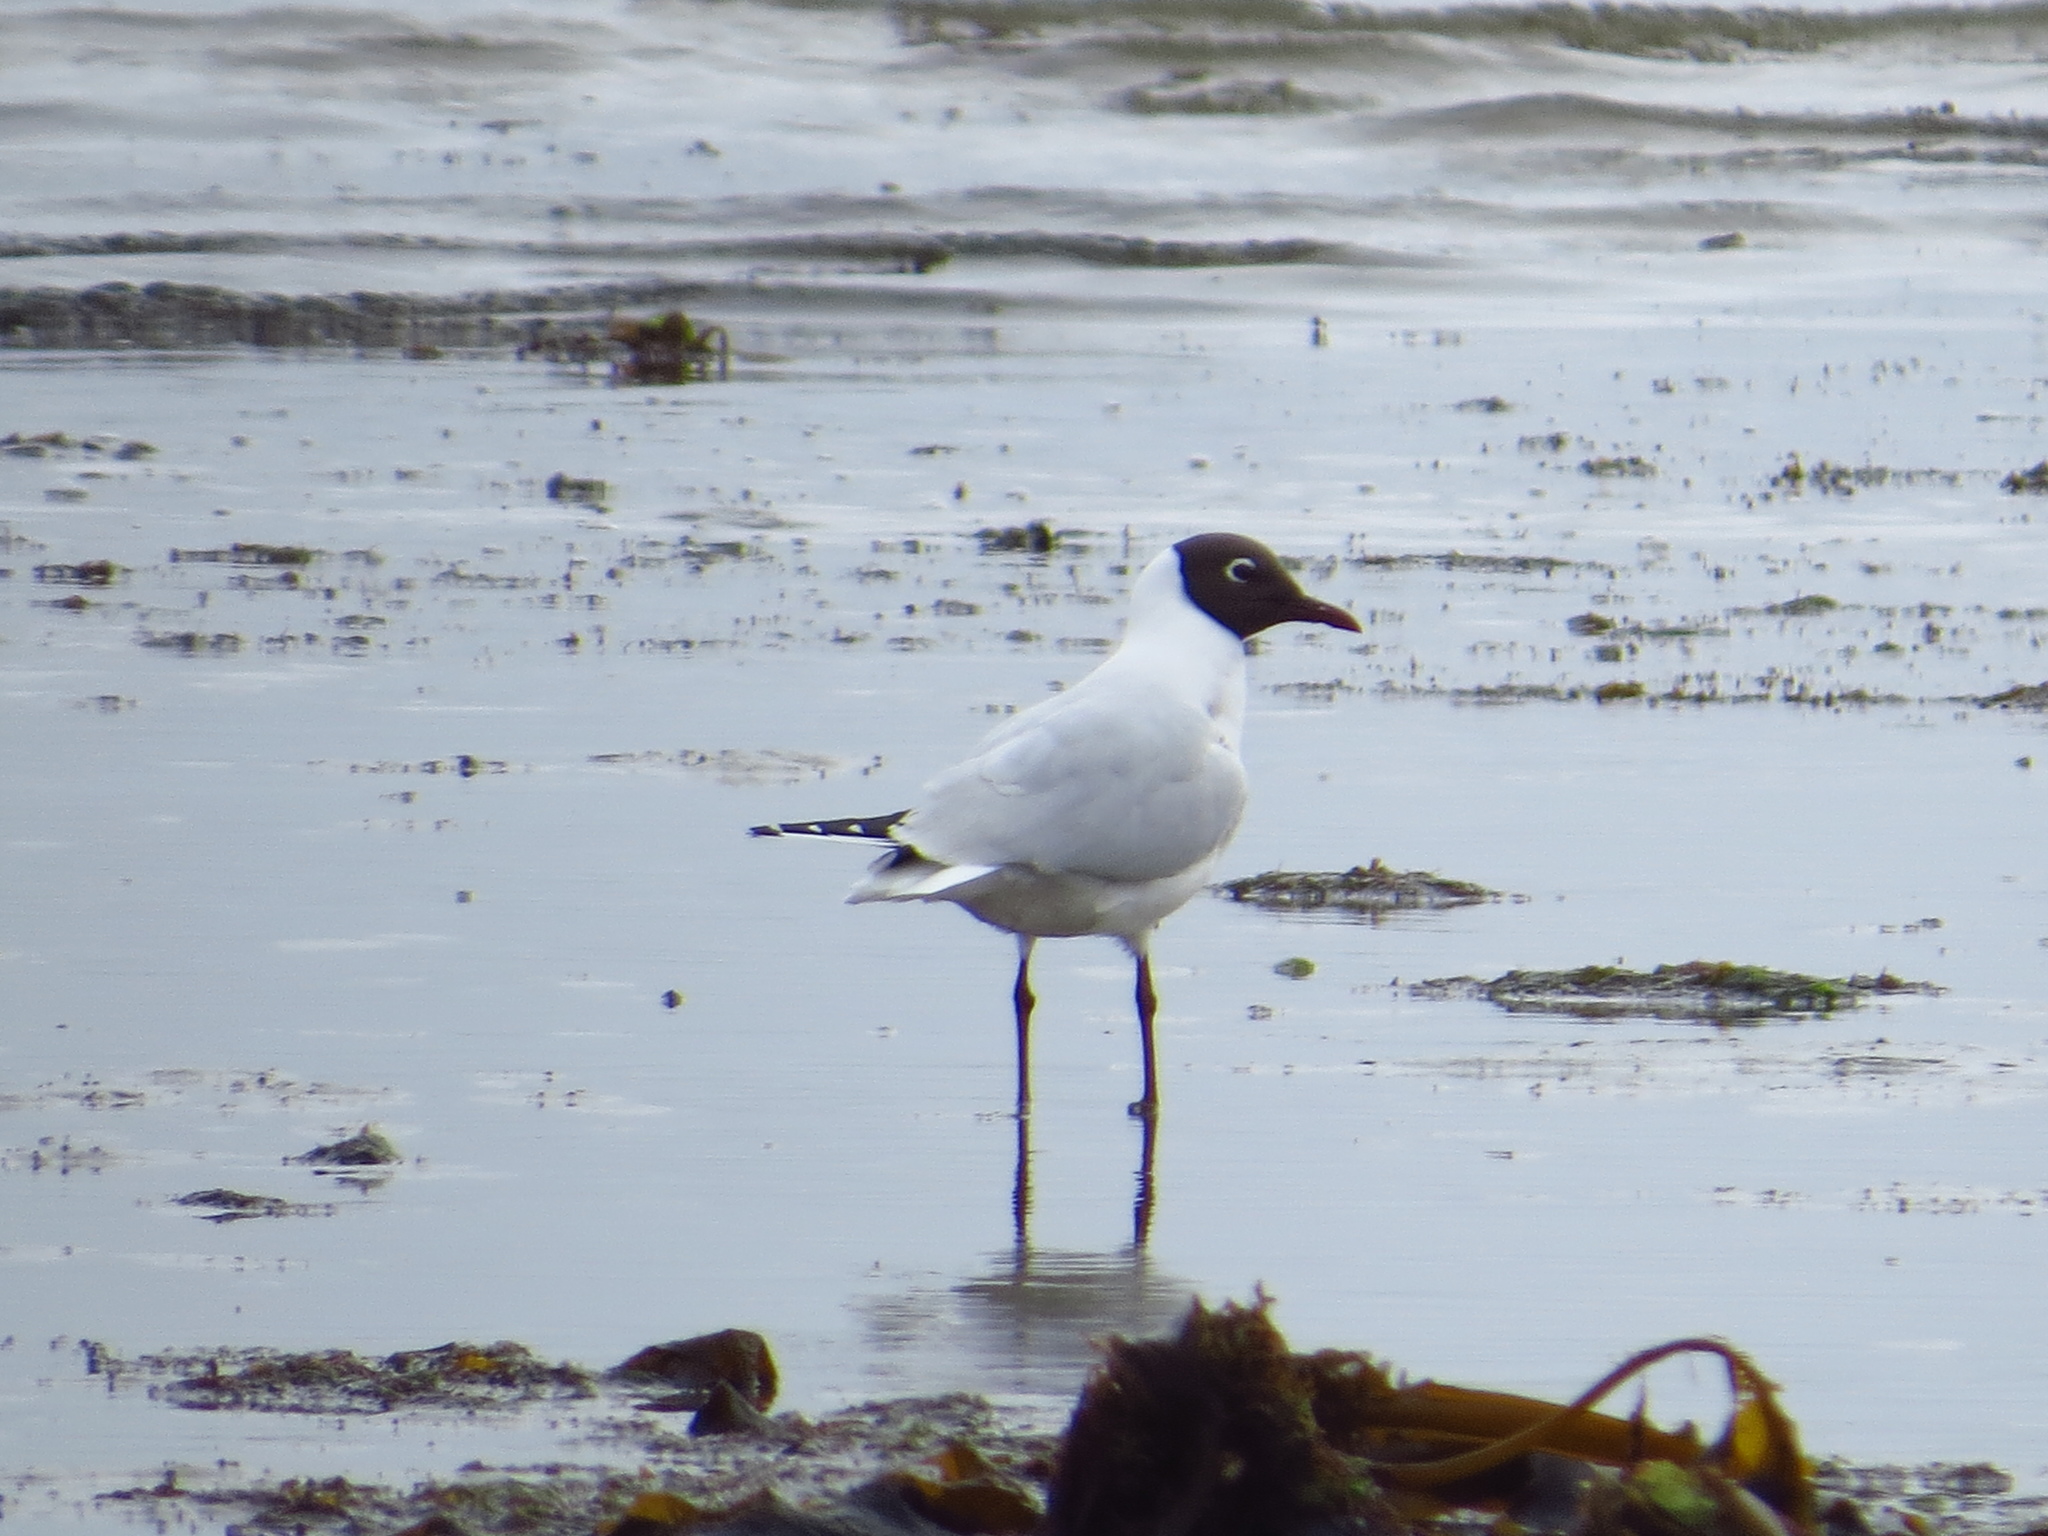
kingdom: Animalia
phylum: Chordata
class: Aves
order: Charadriiformes
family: Laridae
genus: Chroicocephalus
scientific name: Chroicocephalus maculipennis
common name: Brown-hooded gull
